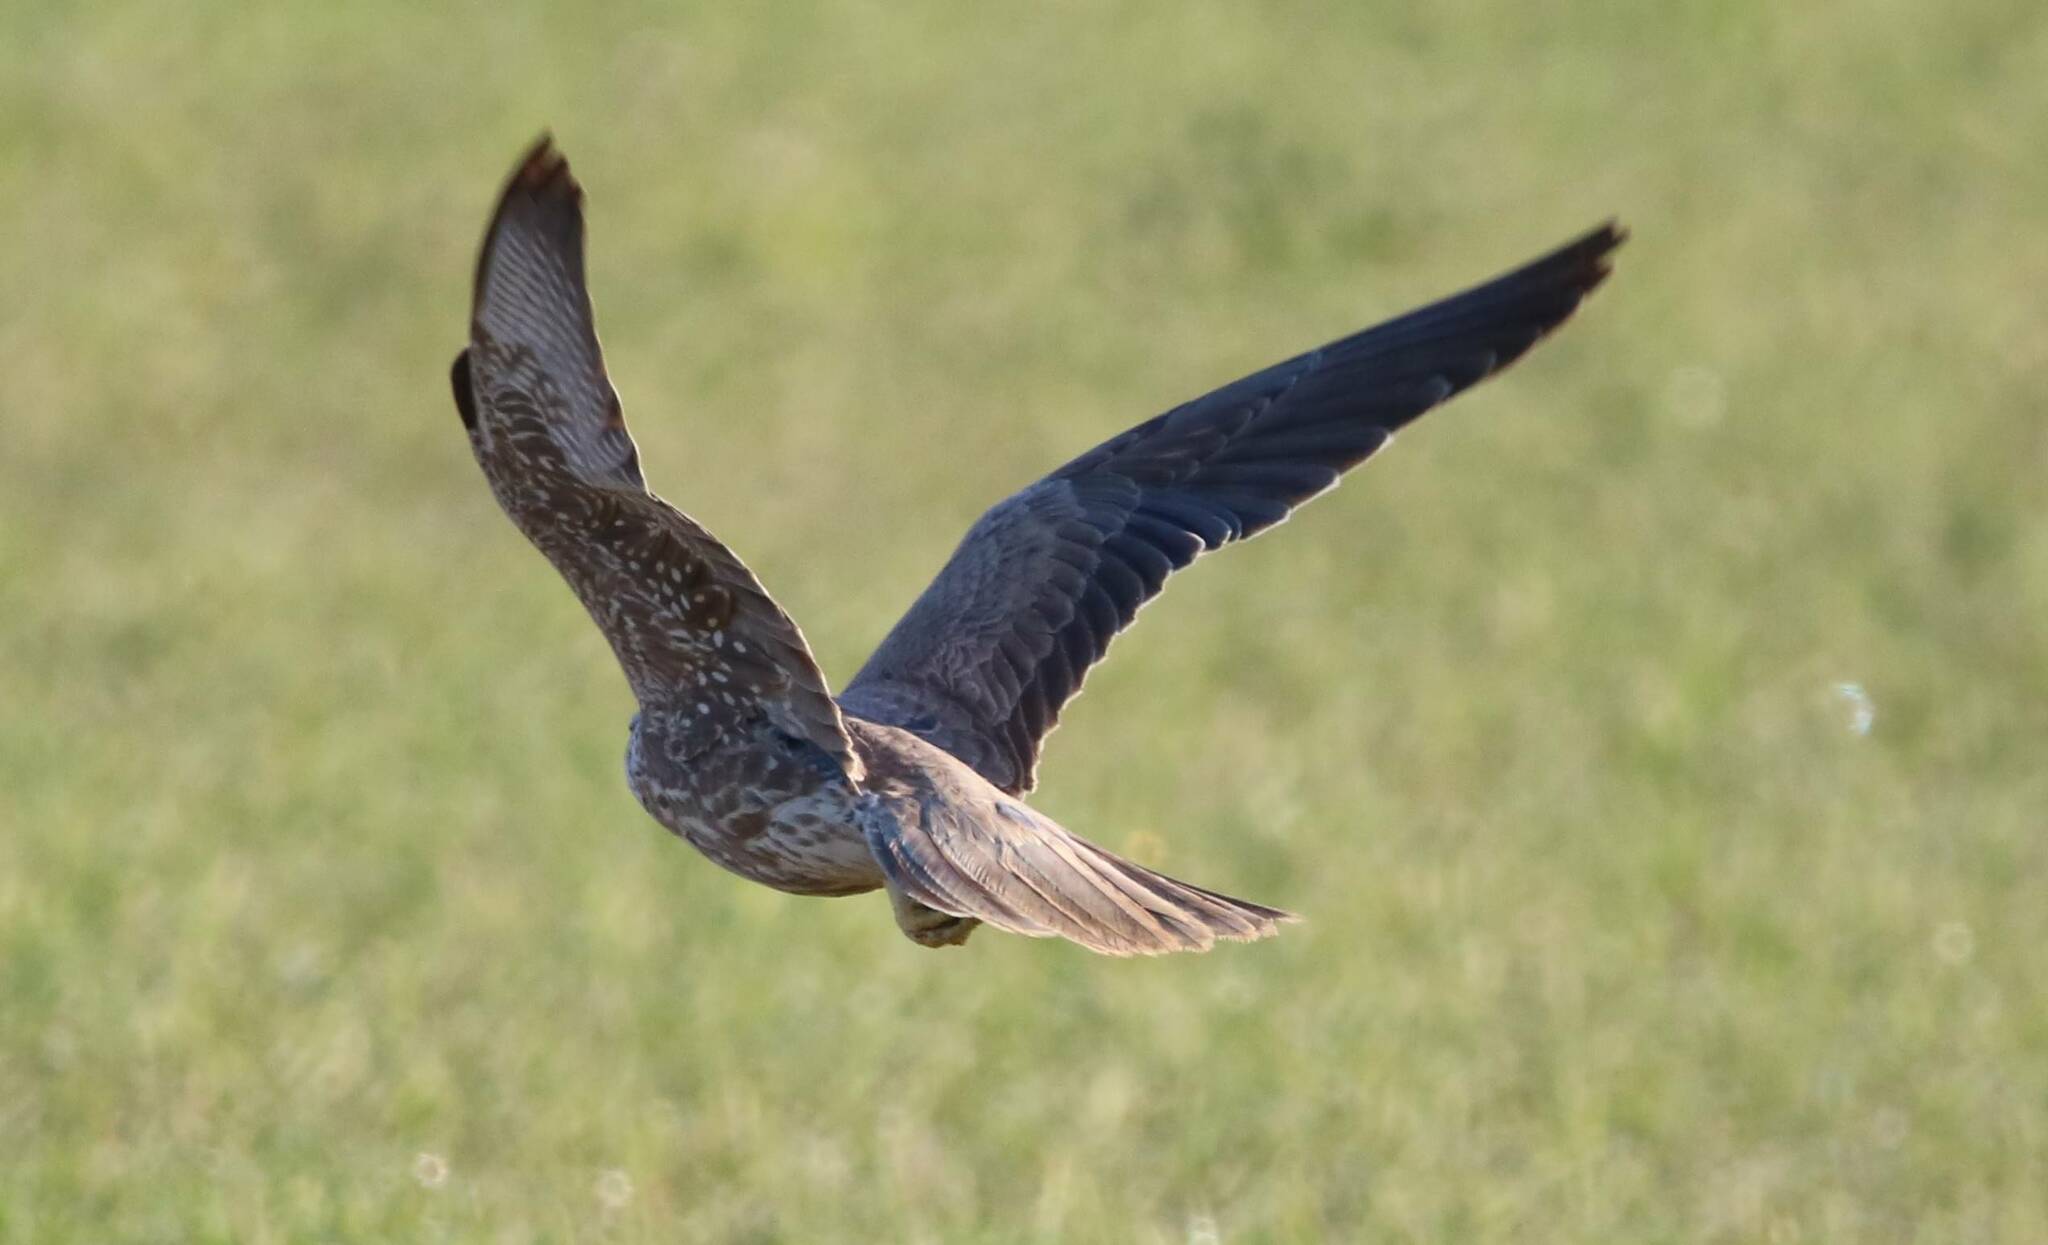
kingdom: Animalia
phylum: Chordata
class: Aves
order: Falconiformes
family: Falconidae
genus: Falco
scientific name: Falco biarmicus
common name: Lanner falcon
